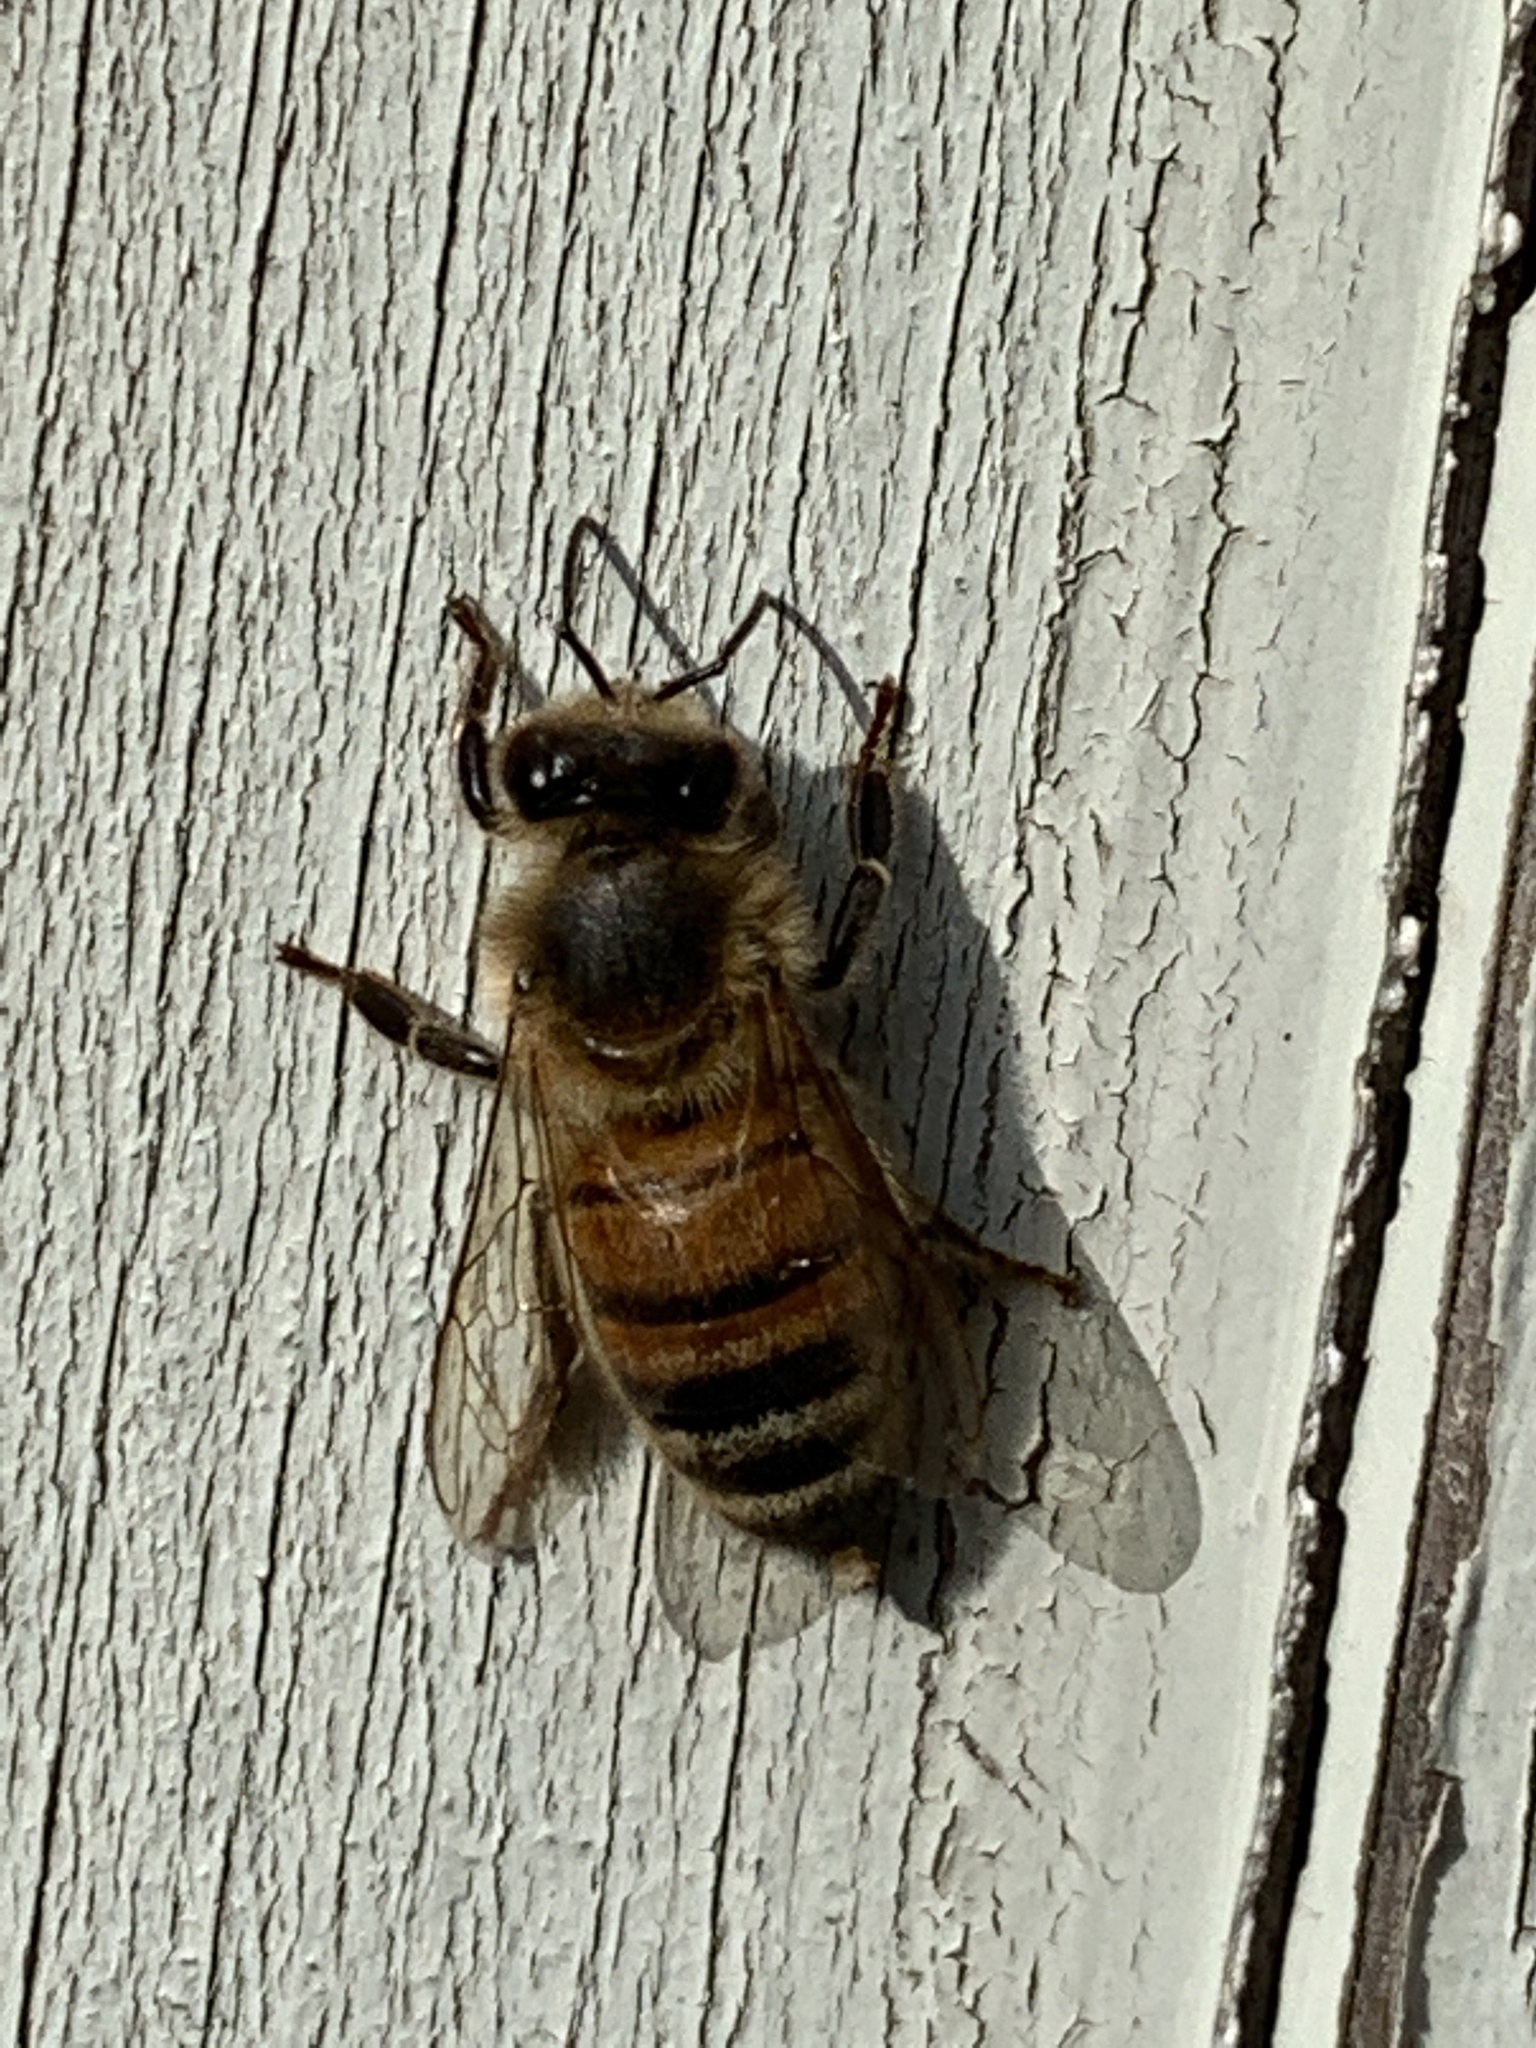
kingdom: Animalia
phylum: Arthropoda
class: Insecta
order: Hymenoptera
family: Apidae
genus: Apis
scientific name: Apis mellifera
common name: Honey bee
